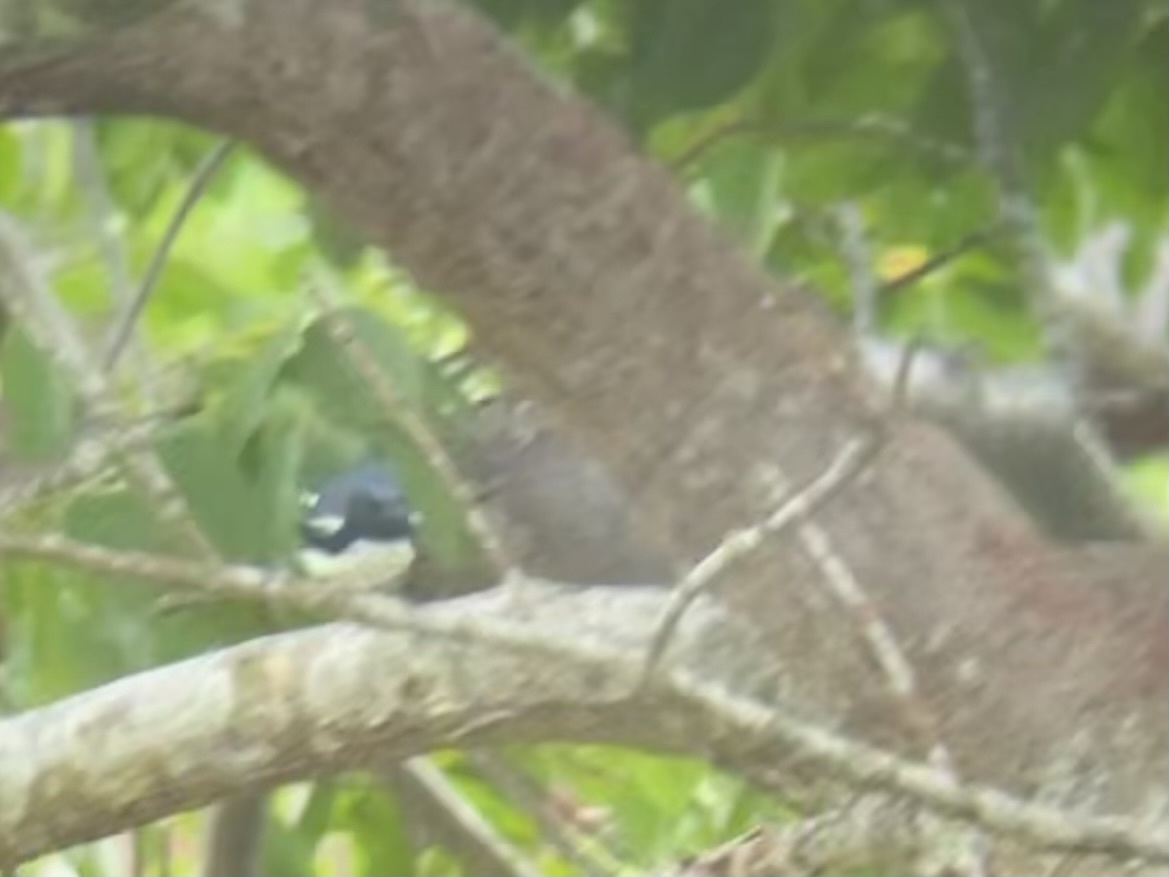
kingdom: Animalia
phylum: Chordata
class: Aves
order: Passeriformes
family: Parulidae
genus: Setophaga
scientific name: Setophaga caerulescens
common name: Black-throated blue warbler
